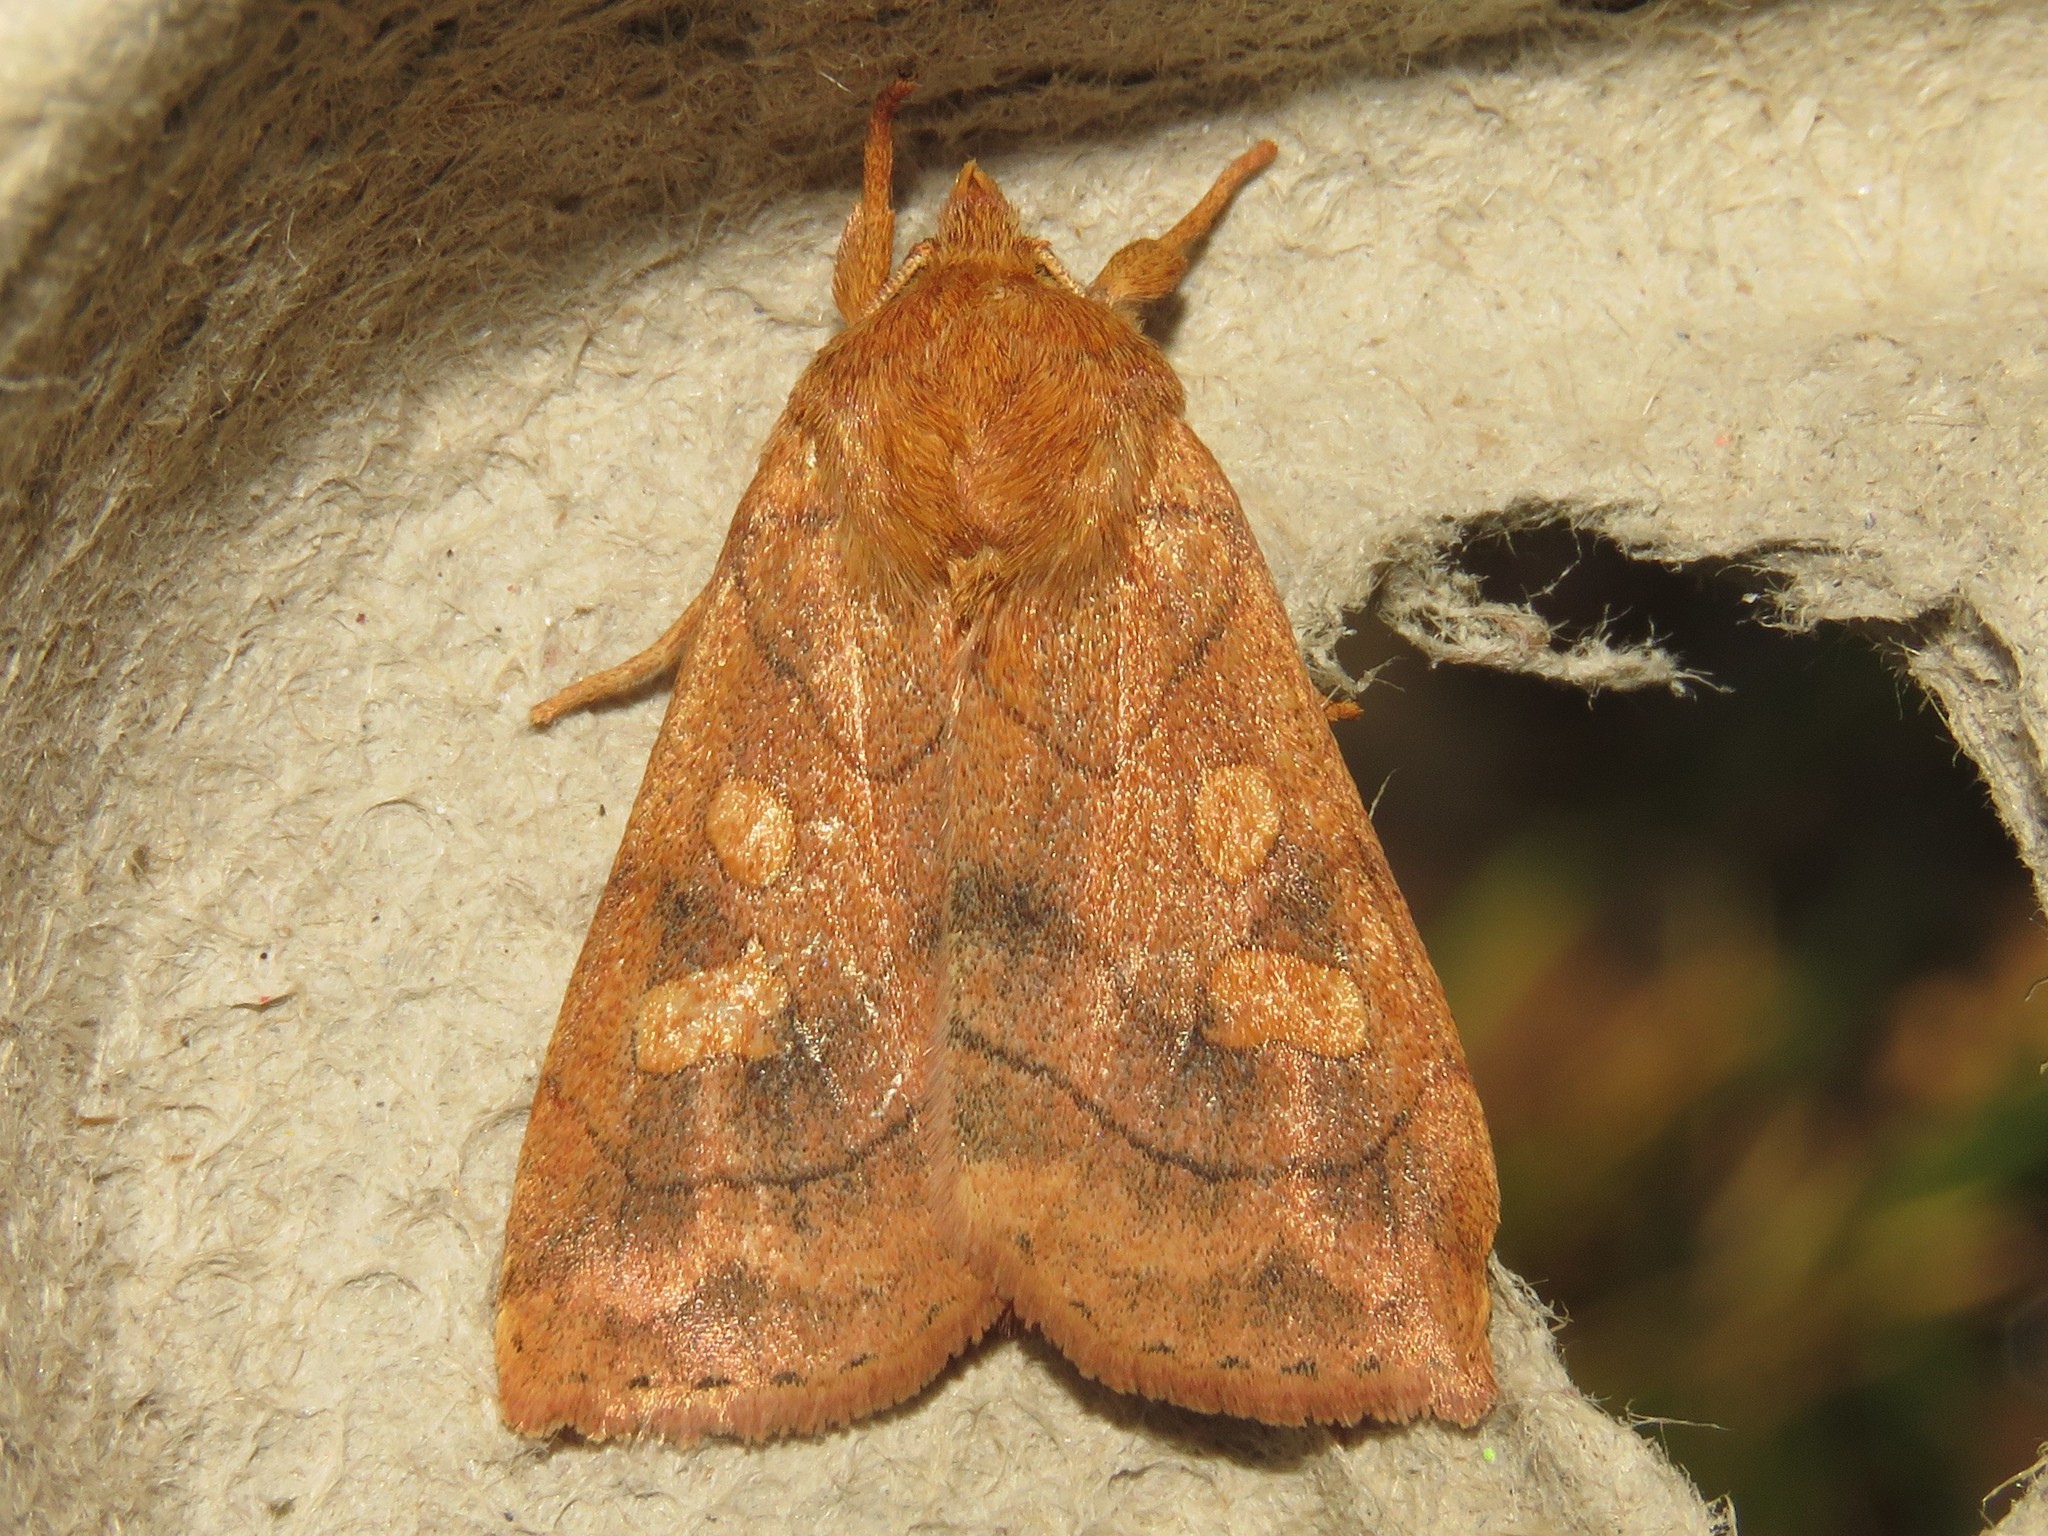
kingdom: Animalia
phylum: Arthropoda
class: Insecta
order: Lepidoptera
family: Noctuidae
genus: Enargia
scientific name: Enargia decolor
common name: Aspen twoleaf tier moth
